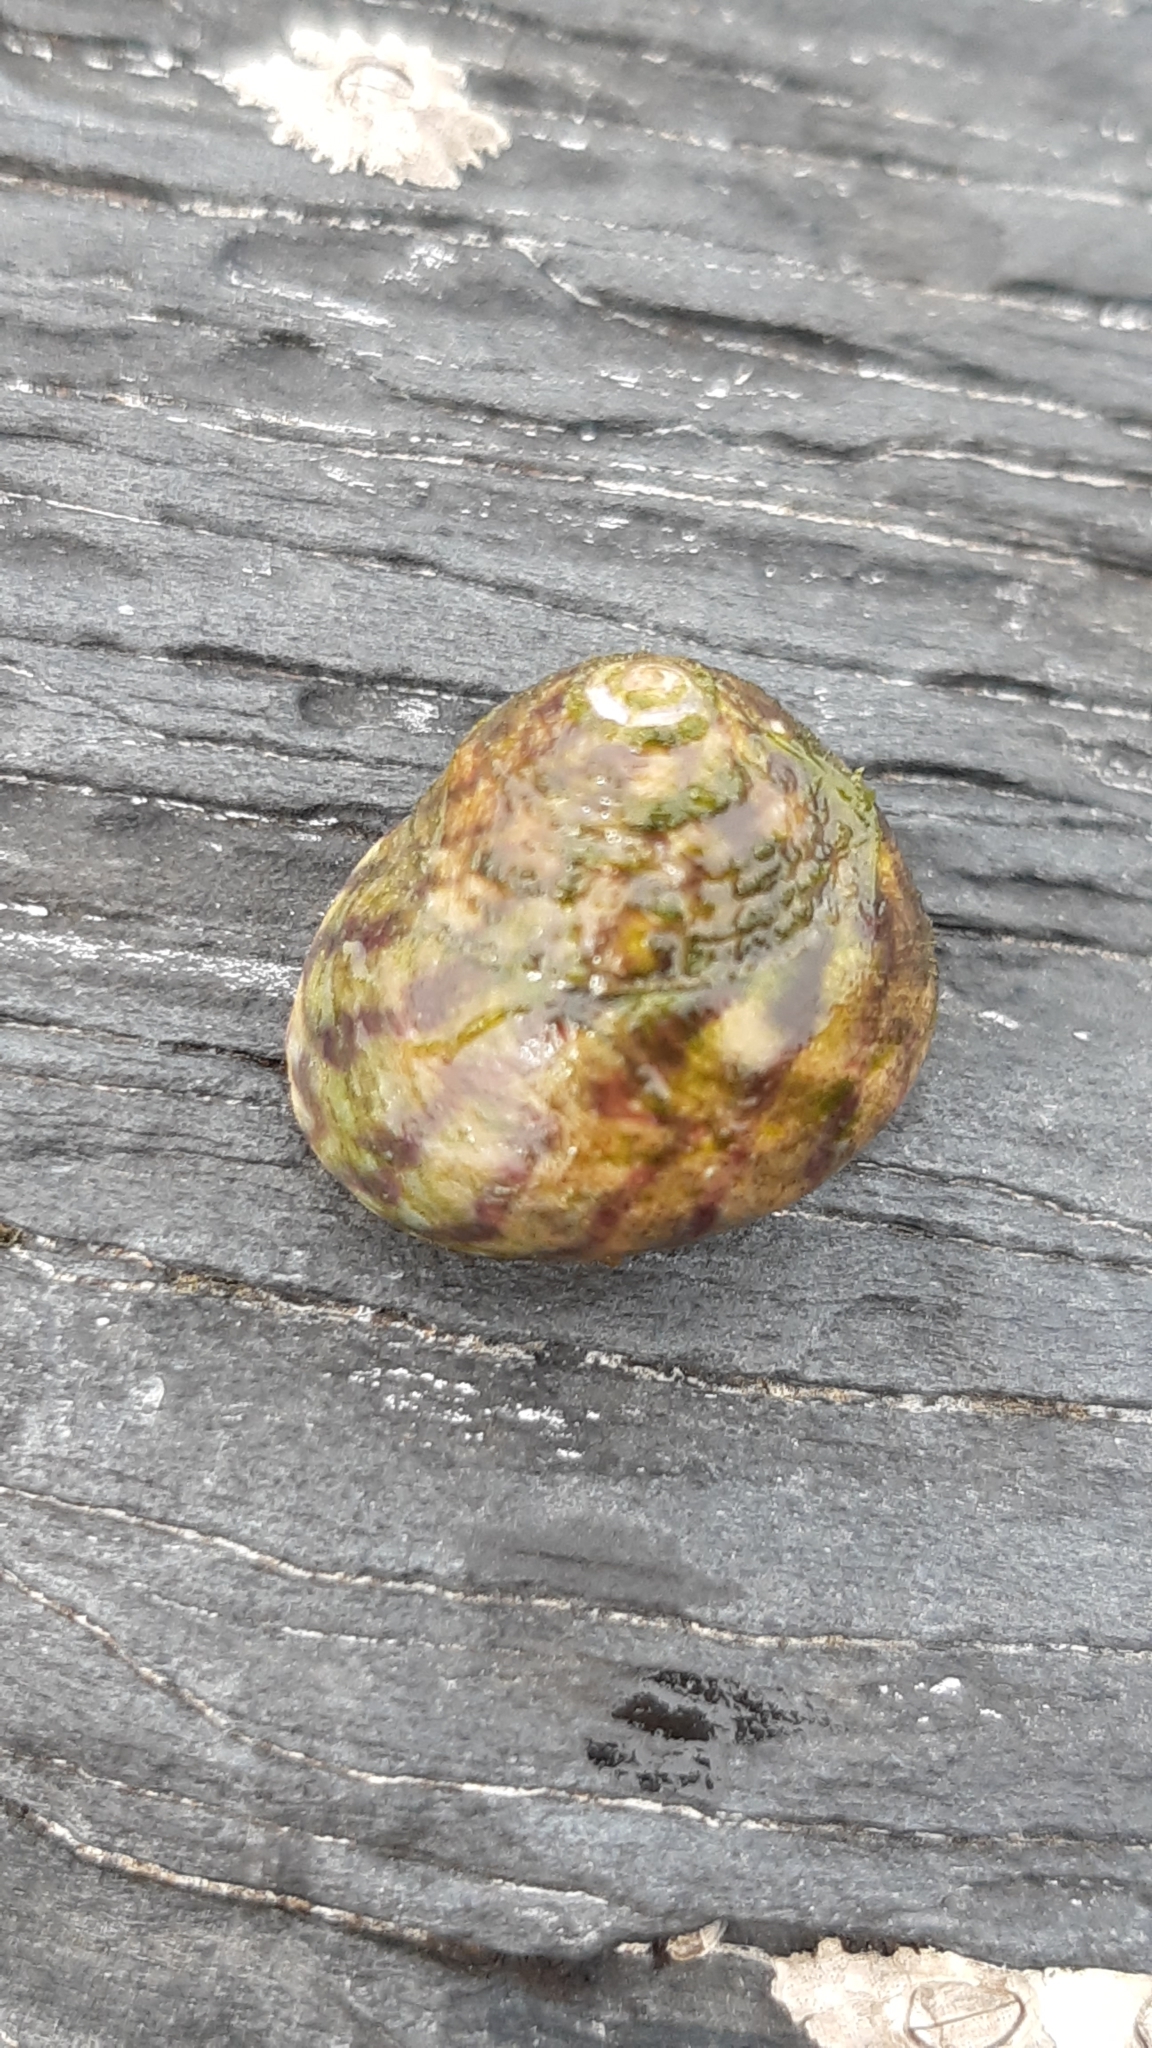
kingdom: Animalia
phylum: Mollusca
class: Gastropoda
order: Trochida
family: Trochidae
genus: Steromphala
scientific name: Steromphala umbilicalis
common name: Flat top shell
